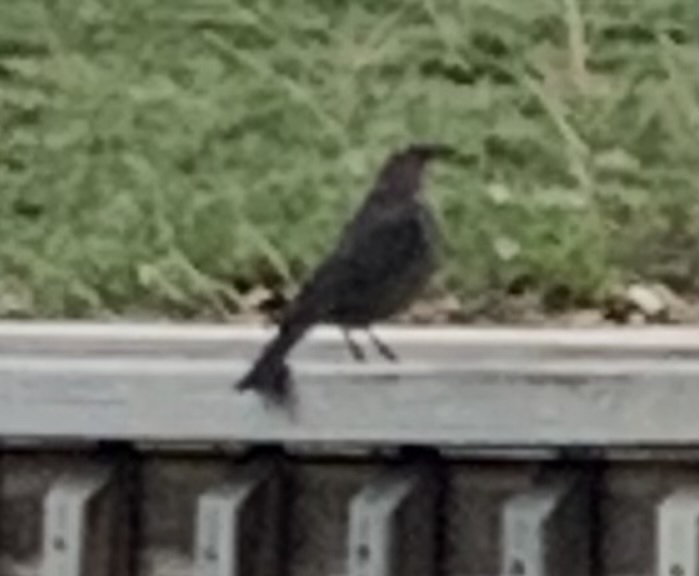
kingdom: Animalia
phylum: Chordata
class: Aves
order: Passeriformes
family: Icteridae
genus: Molothrus
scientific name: Molothrus ater
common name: Brown-headed cowbird
